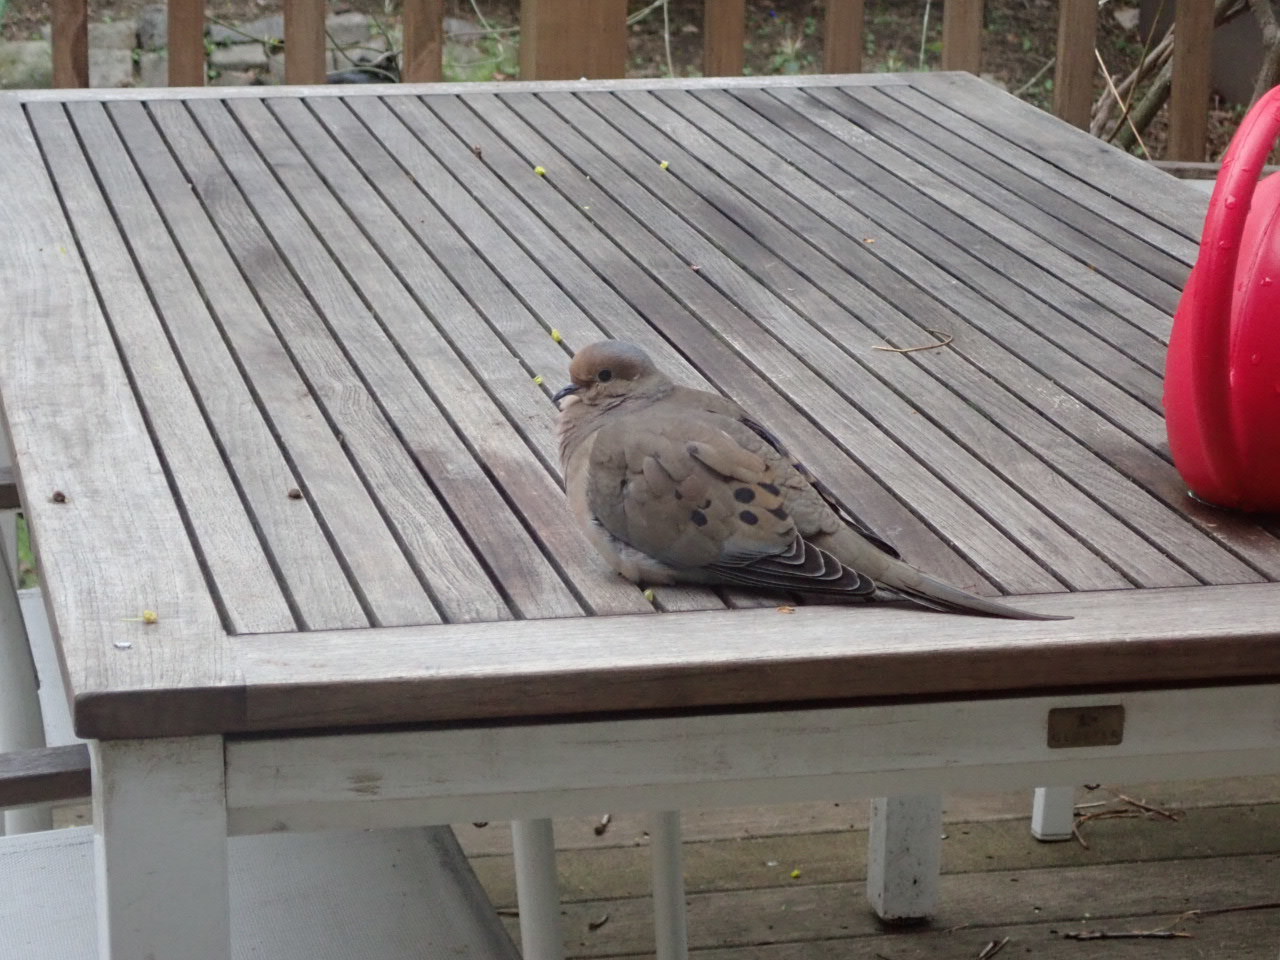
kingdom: Animalia
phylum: Chordata
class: Aves
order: Columbiformes
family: Columbidae
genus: Zenaida
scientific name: Zenaida macroura
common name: Mourning dove
